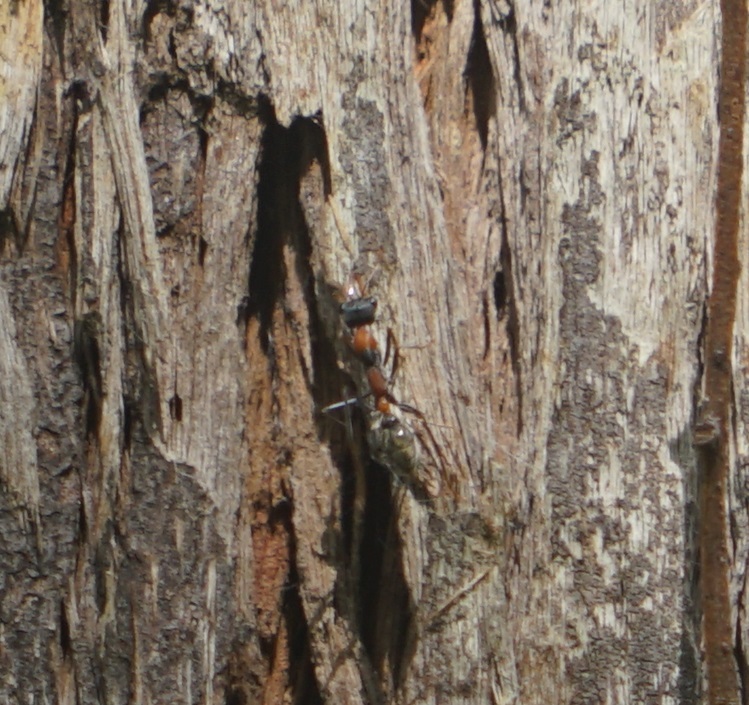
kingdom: Animalia
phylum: Arthropoda
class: Insecta
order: Hymenoptera
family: Formicidae
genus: Myrmecia
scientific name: Myrmecia nigrocincta
